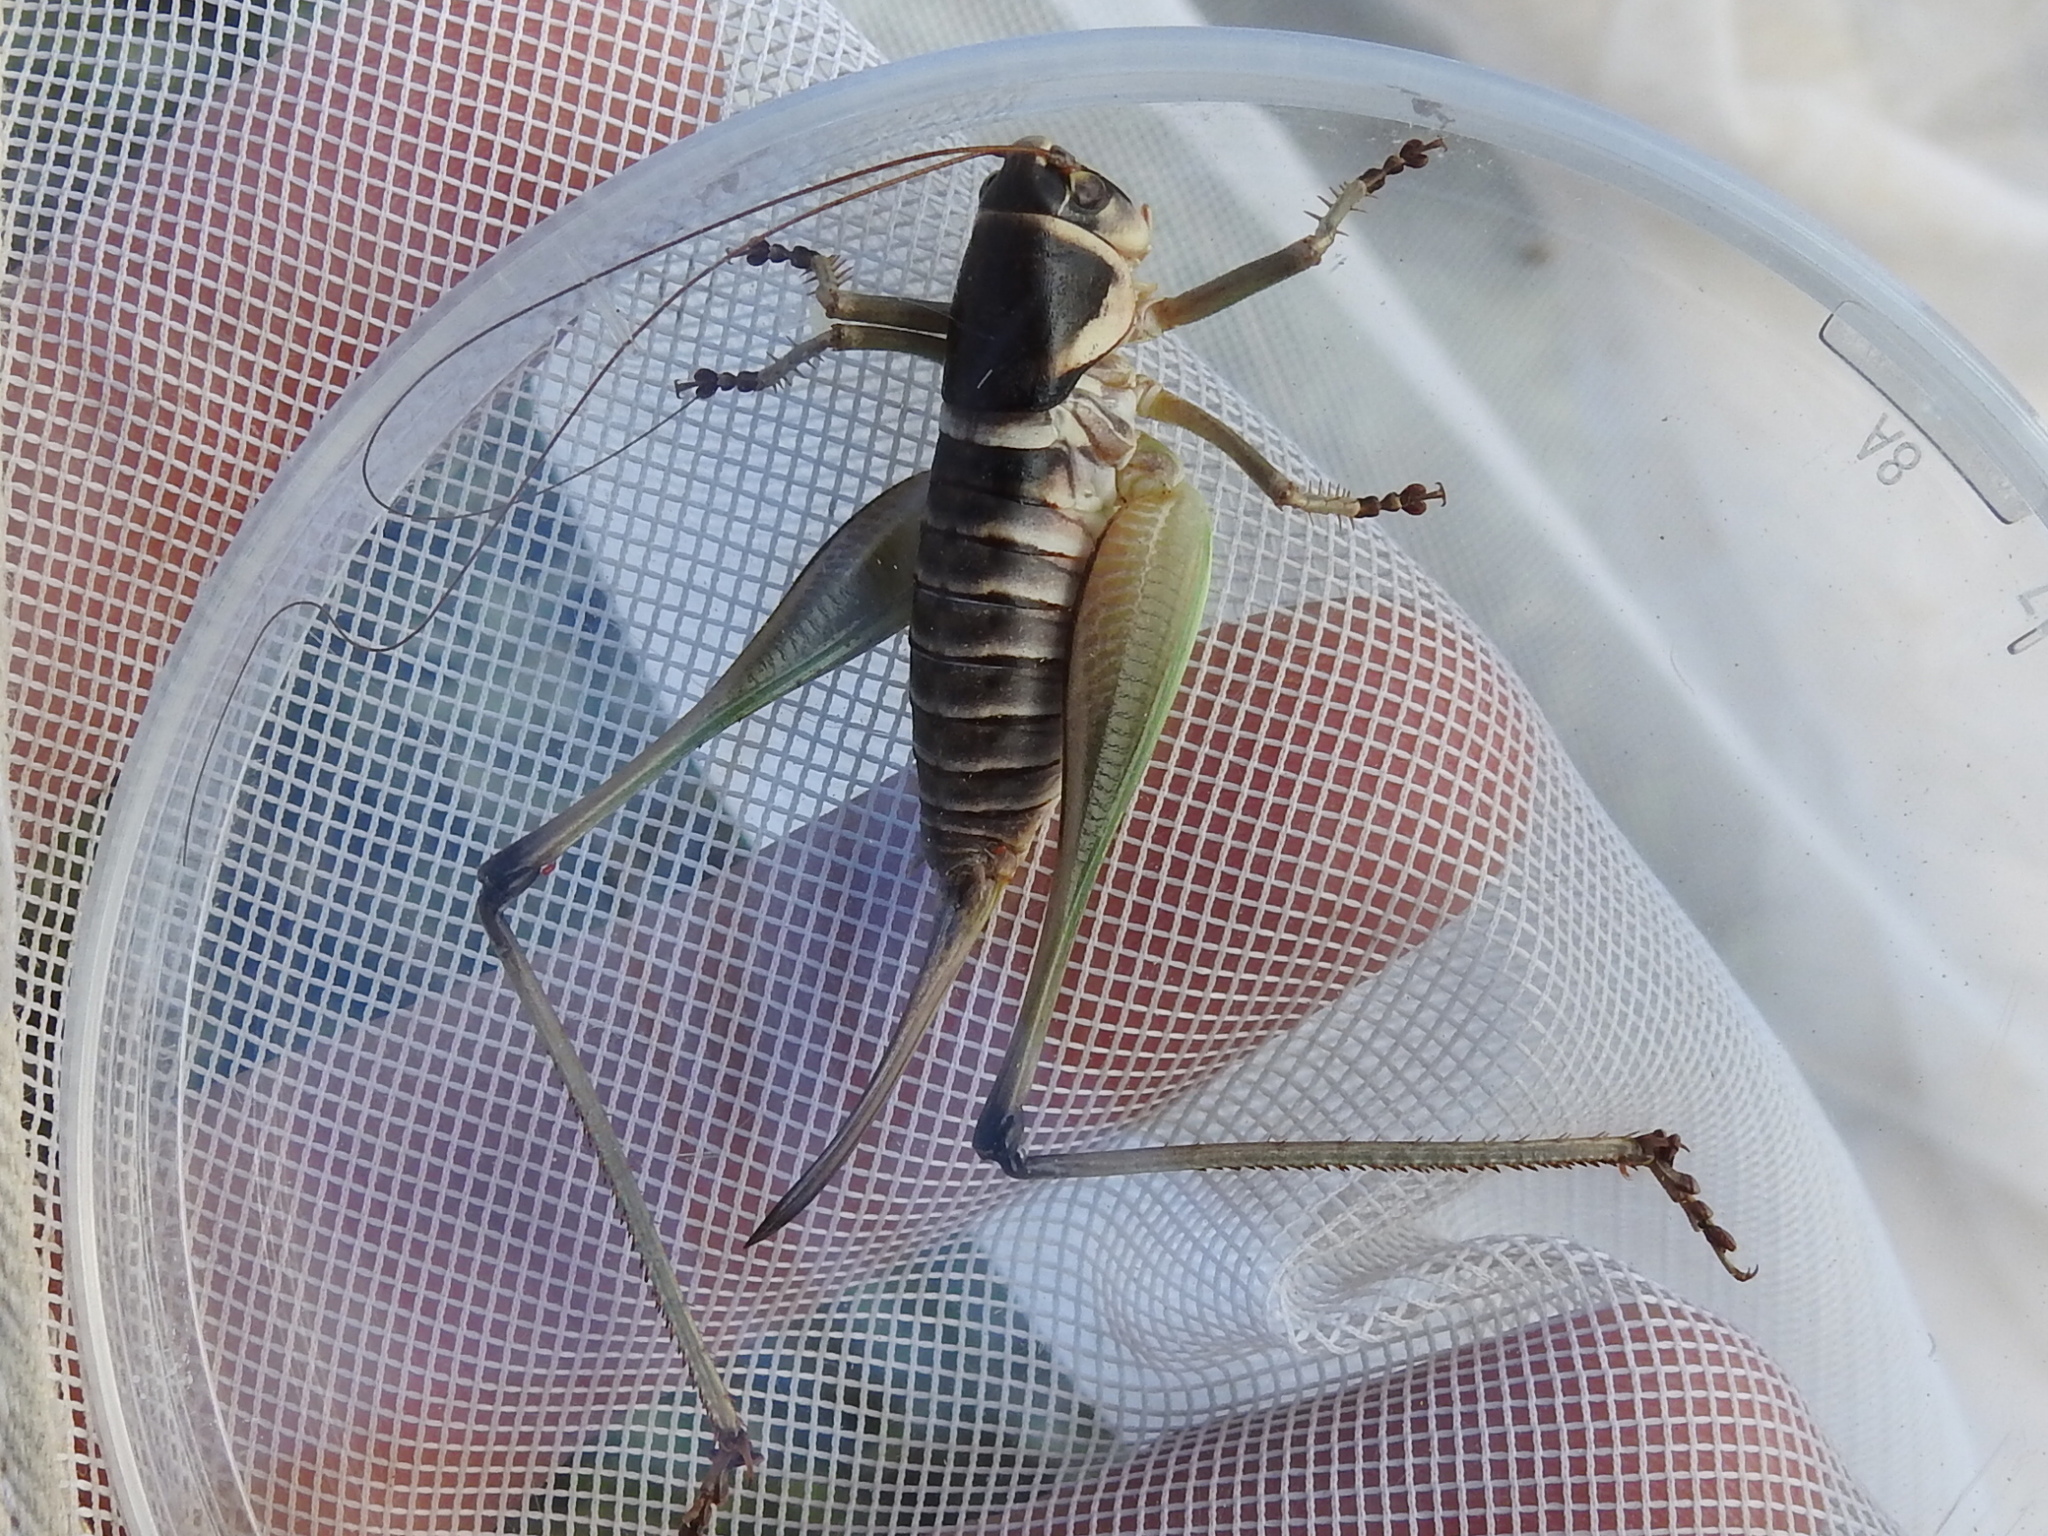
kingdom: Animalia
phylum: Arthropoda
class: Insecta
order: Orthoptera
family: Tettigoniidae
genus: Pediodectes
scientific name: Pediodectes stevensonii
